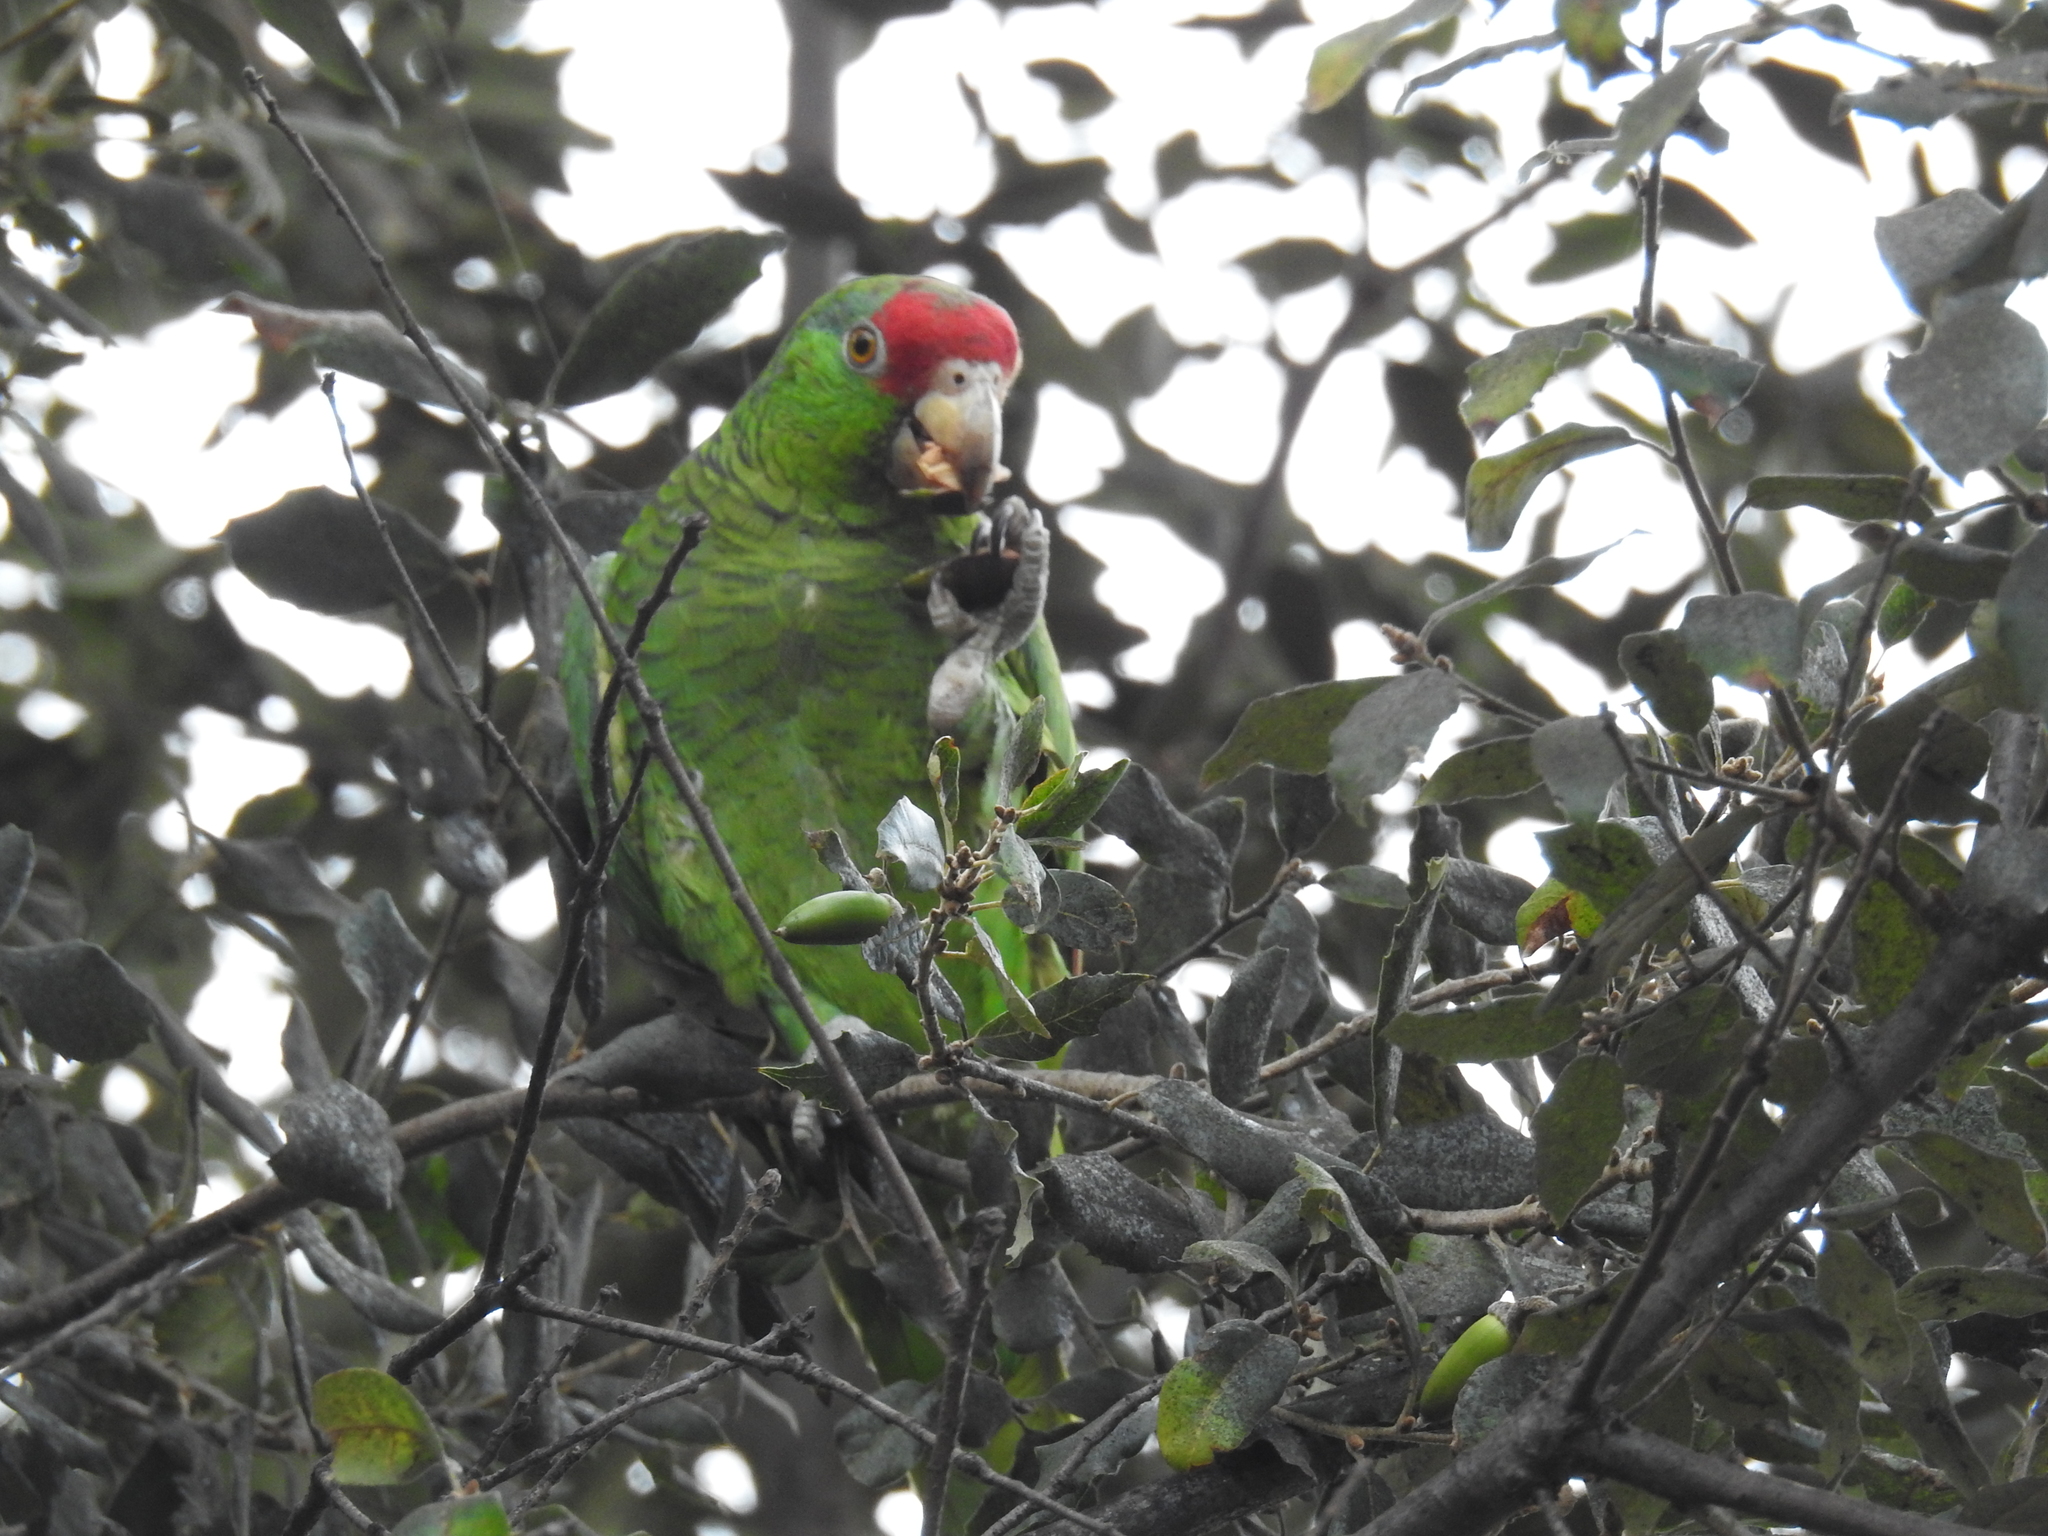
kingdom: Animalia
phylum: Chordata
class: Aves
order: Psittaciformes
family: Psittacidae
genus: Amazona
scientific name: Amazona viridigenalis
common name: Red-crowned amazon
